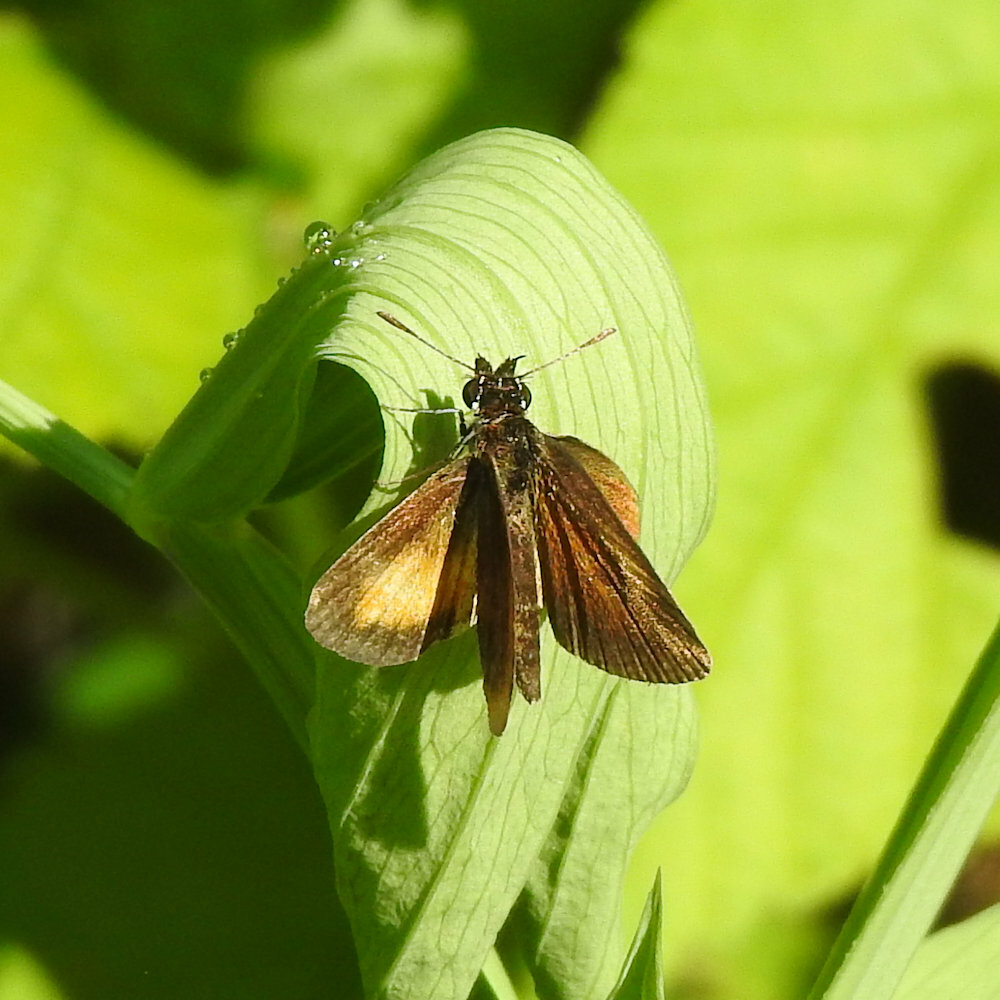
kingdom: Animalia
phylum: Arthropoda
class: Insecta
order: Lepidoptera
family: Hesperiidae
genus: Ancyloxypha
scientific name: Ancyloxypha numitor
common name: Least skipper
